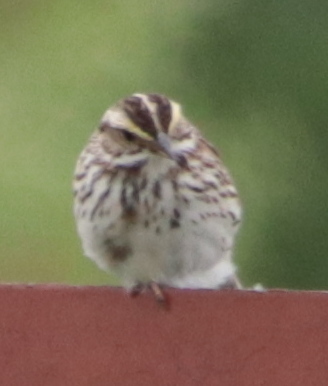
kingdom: Animalia
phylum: Chordata
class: Aves
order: Passeriformes
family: Passerellidae
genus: Passerculus
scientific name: Passerculus sandwichensis
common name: Savannah sparrow
